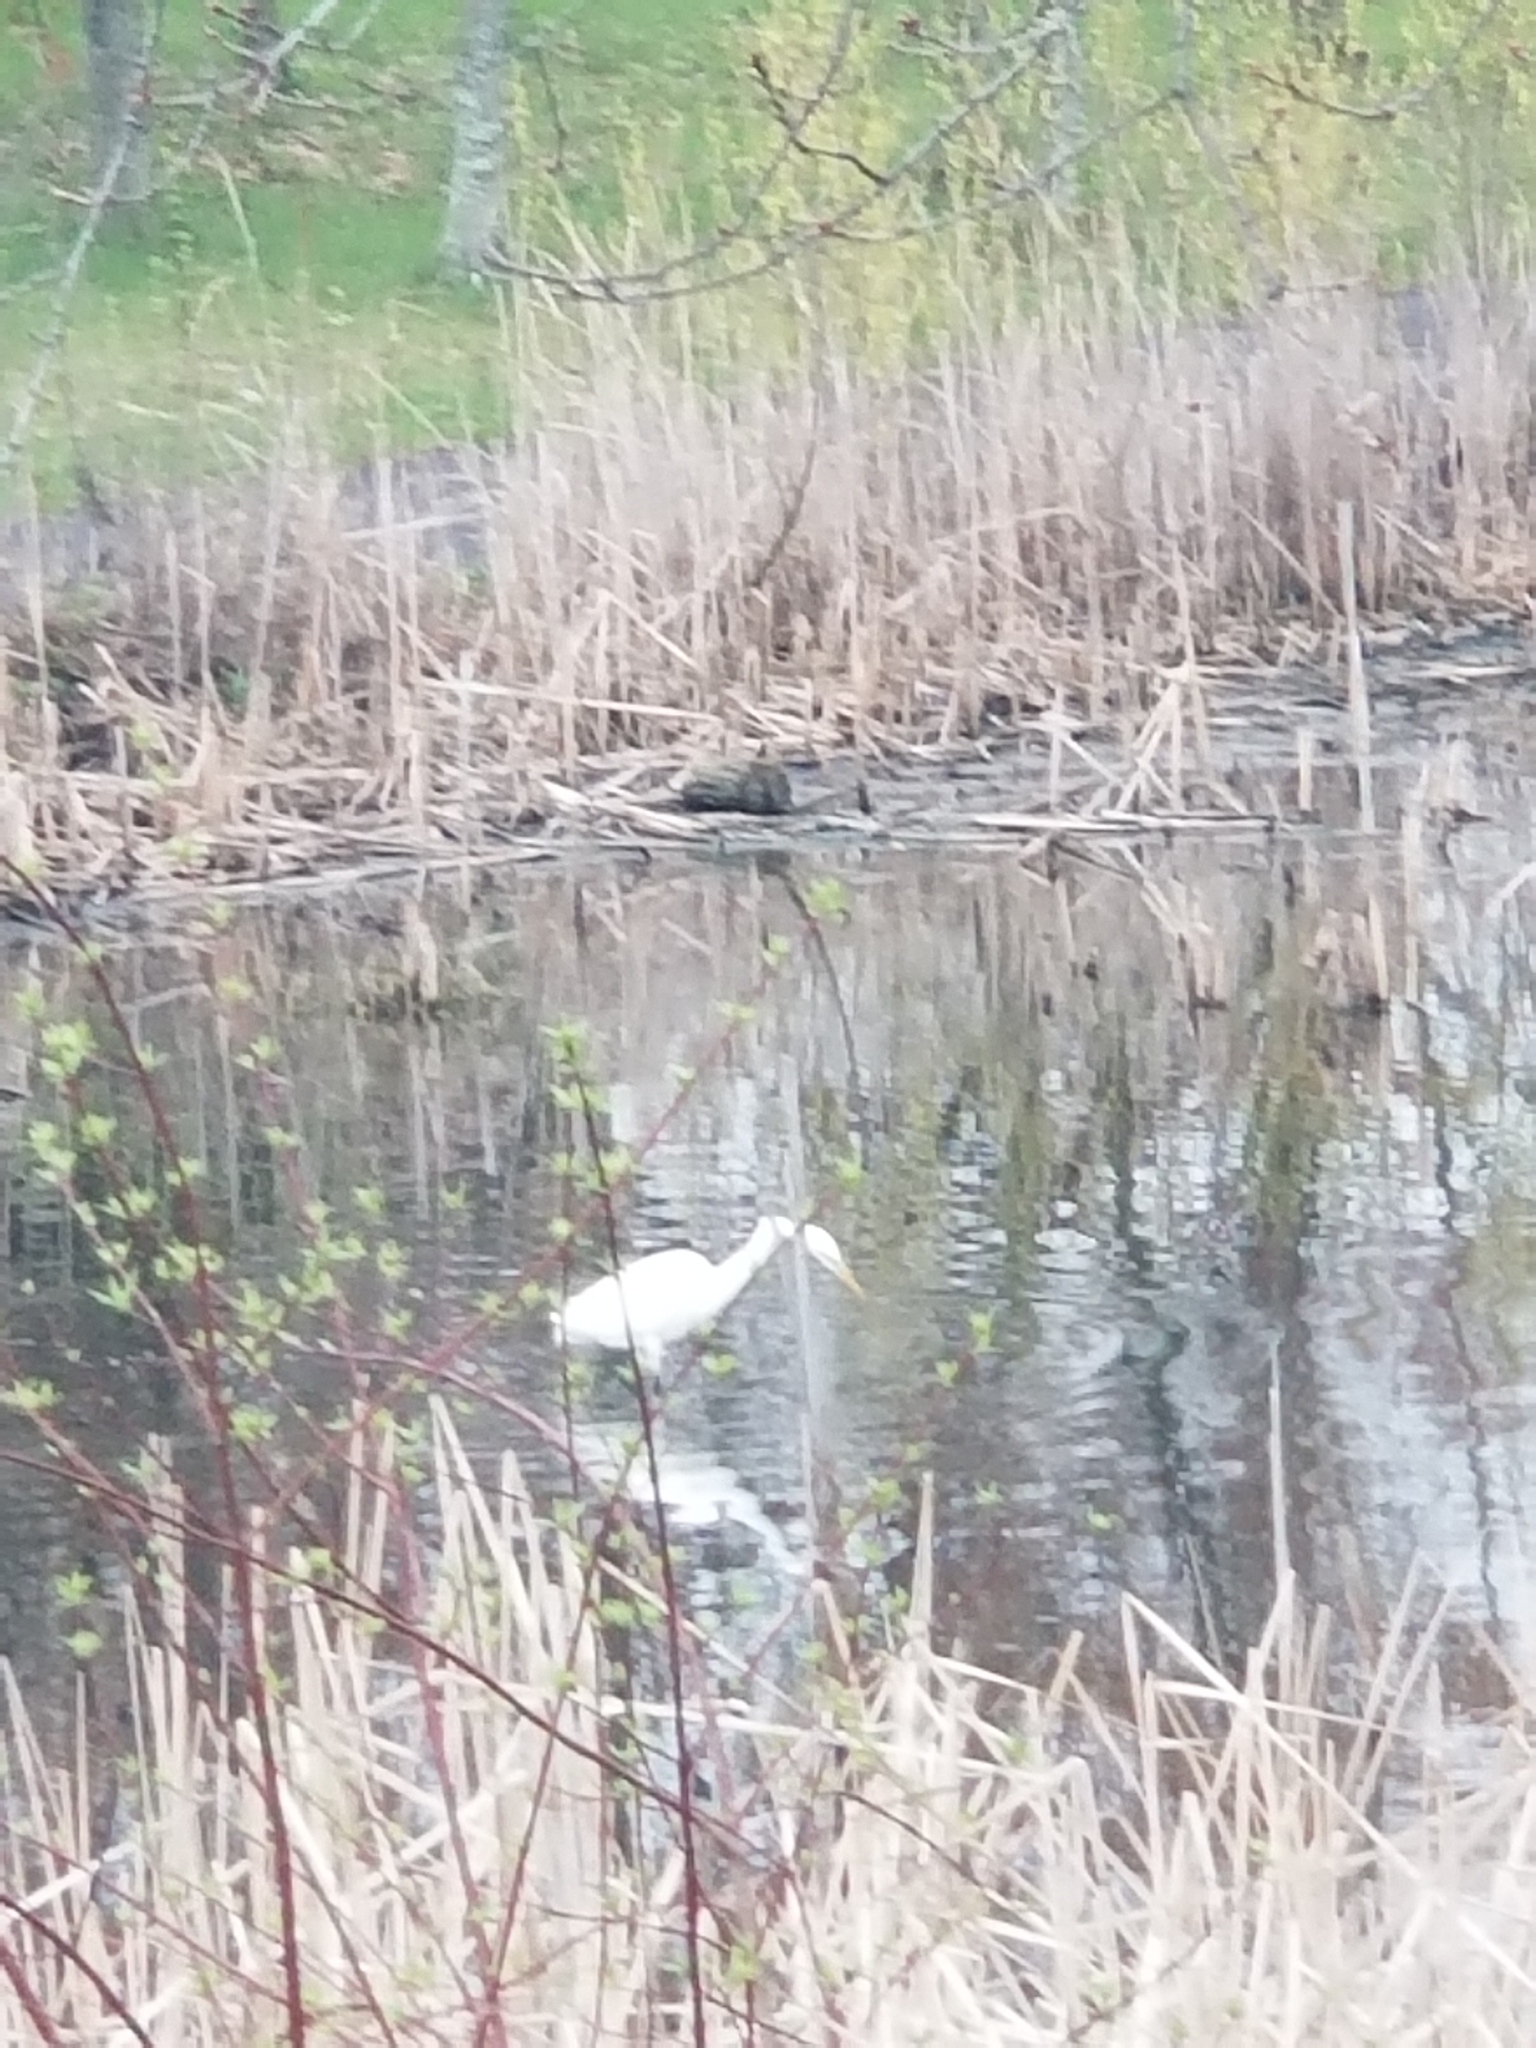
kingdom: Animalia
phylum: Chordata
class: Aves
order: Pelecaniformes
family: Ardeidae
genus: Ardea
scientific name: Ardea alba
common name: Great egret
